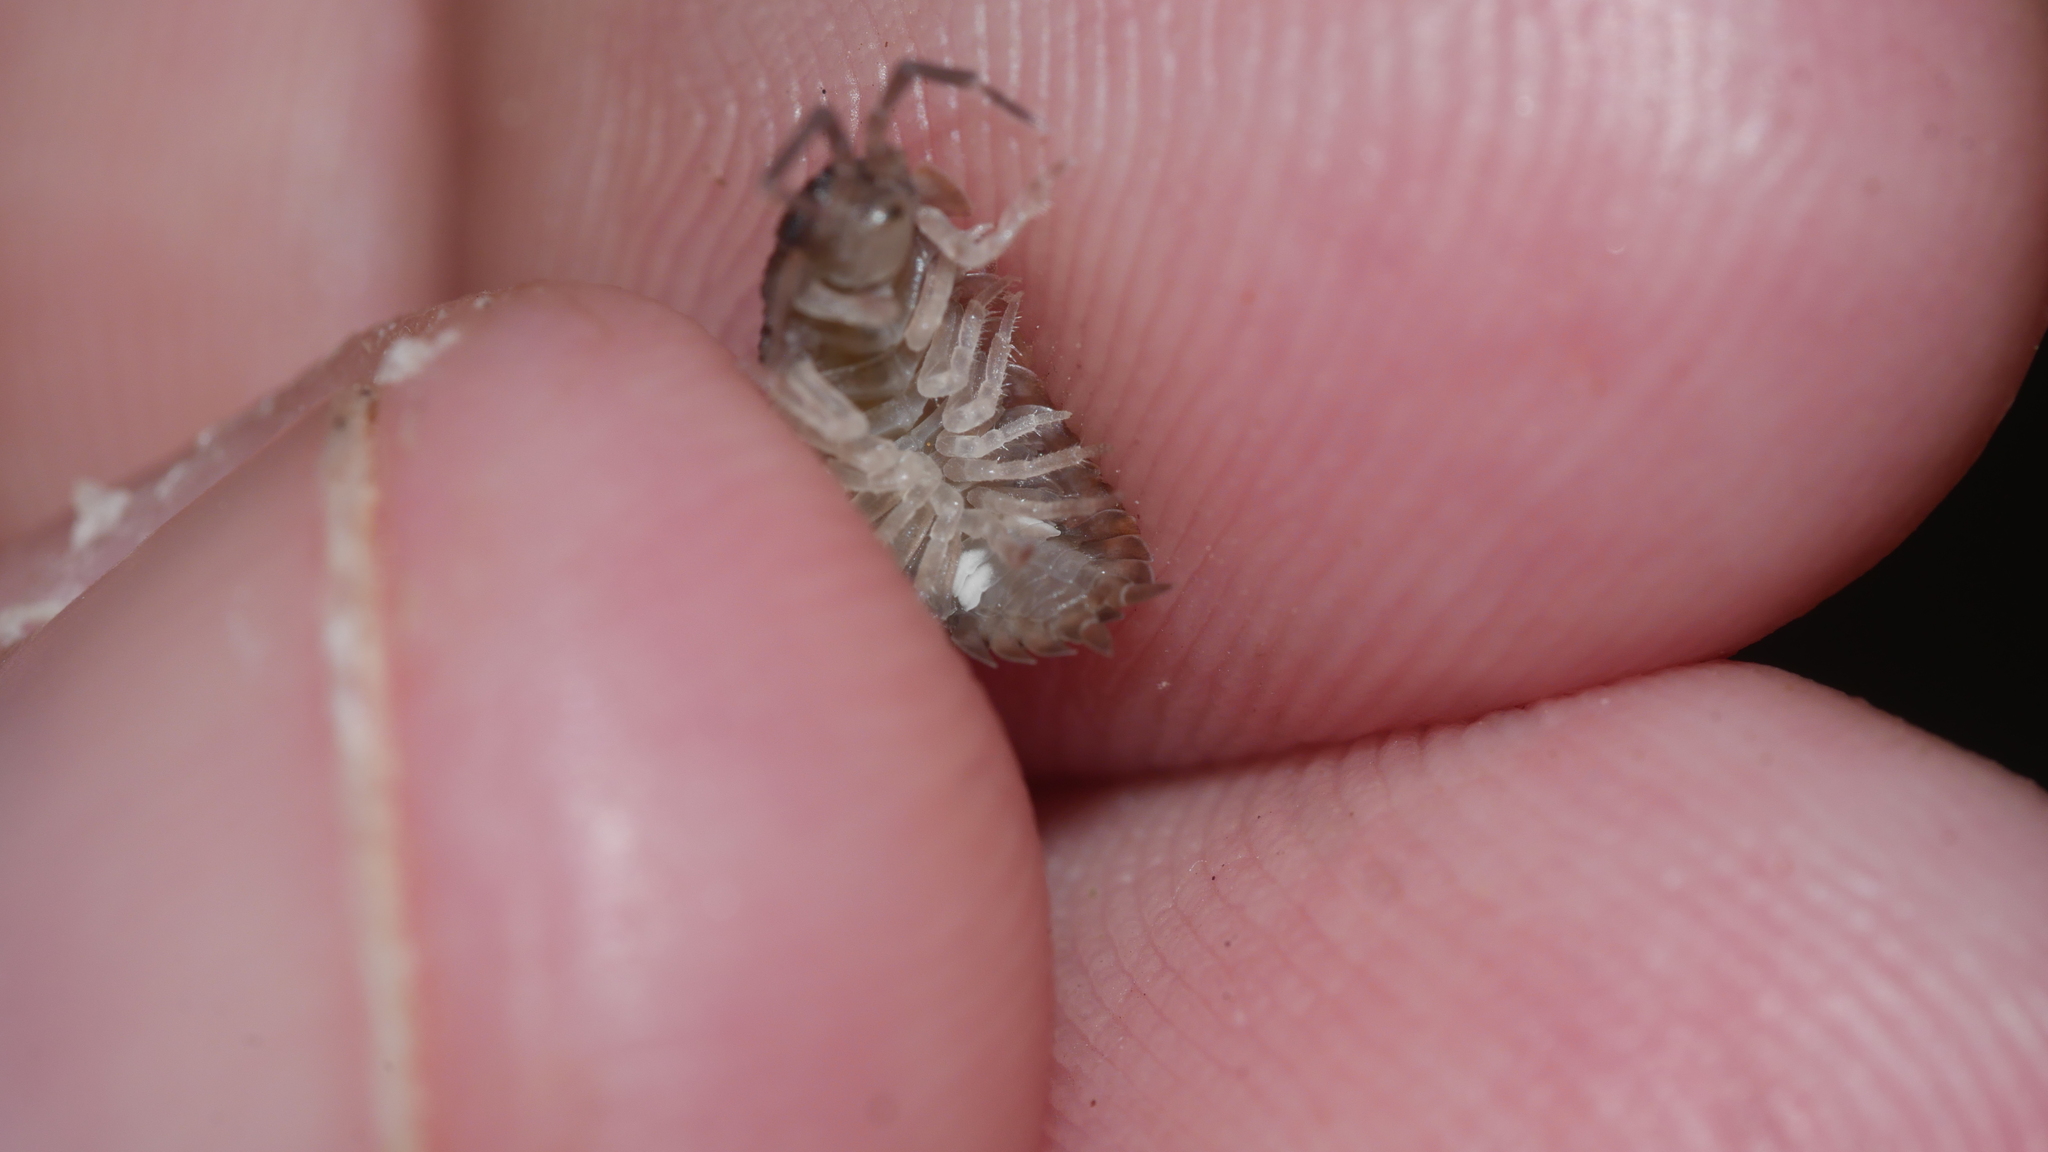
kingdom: Animalia
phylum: Arthropoda
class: Malacostraca
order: Isopoda
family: Porcellionidae
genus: Porcellio
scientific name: Porcellio scaber
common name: Common rough woodlouse
